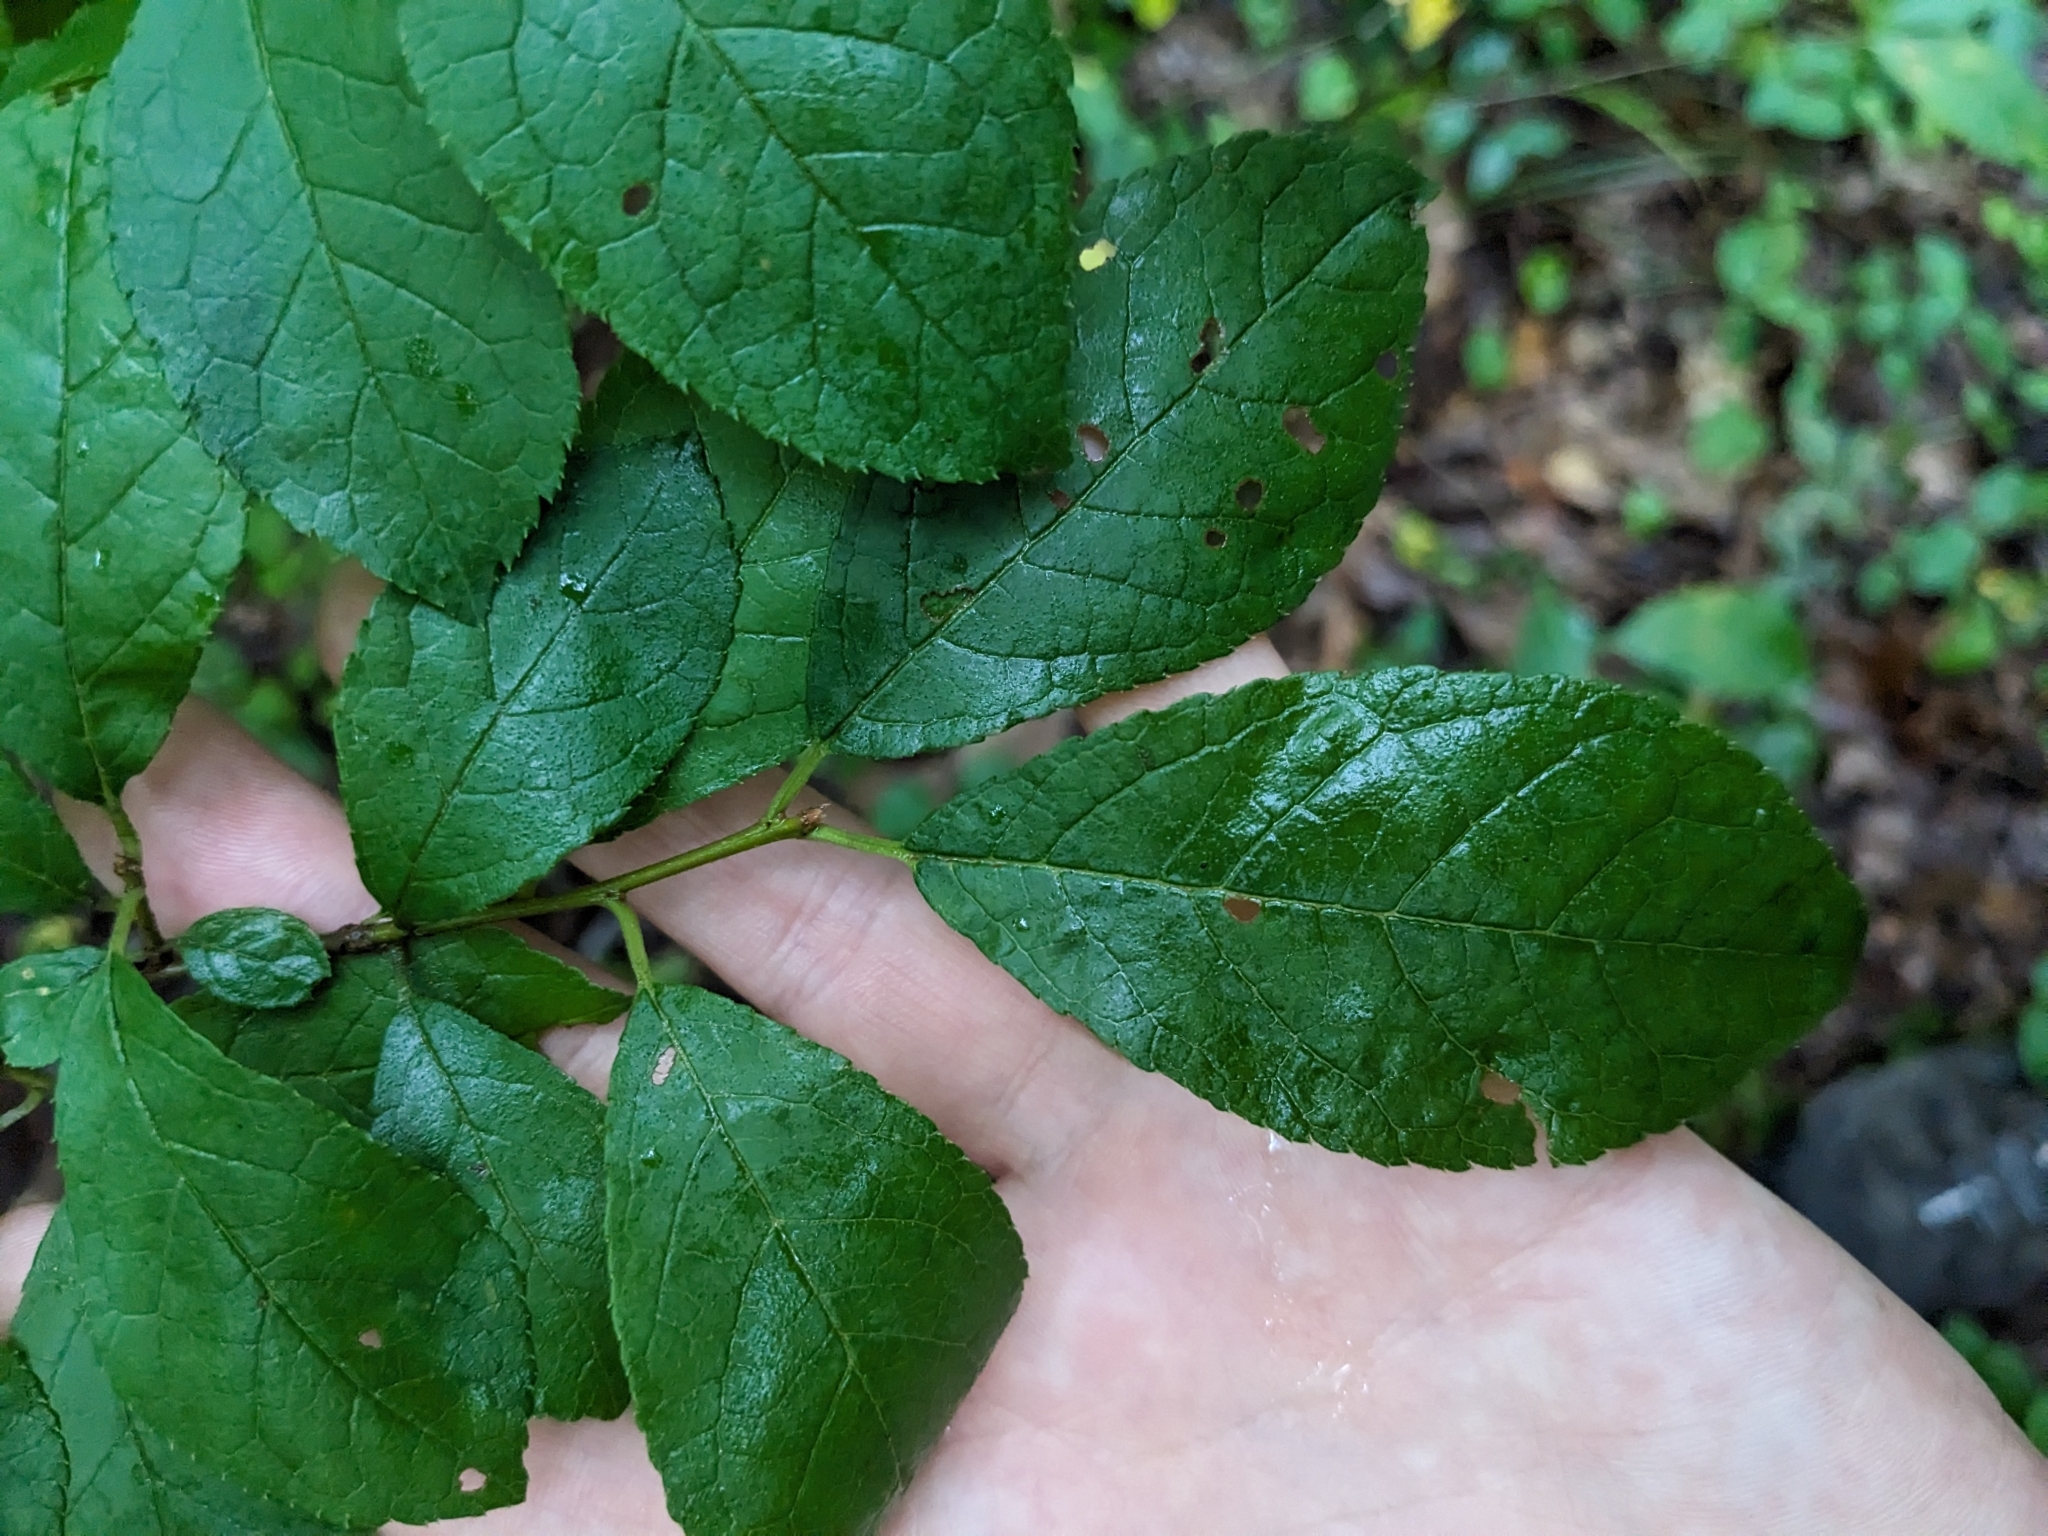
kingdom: Plantae
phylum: Tracheophyta
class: Magnoliopsida
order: Aquifoliales
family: Aquifoliaceae
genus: Ilex
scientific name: Ilex verticillata
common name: Virginia winterberry
